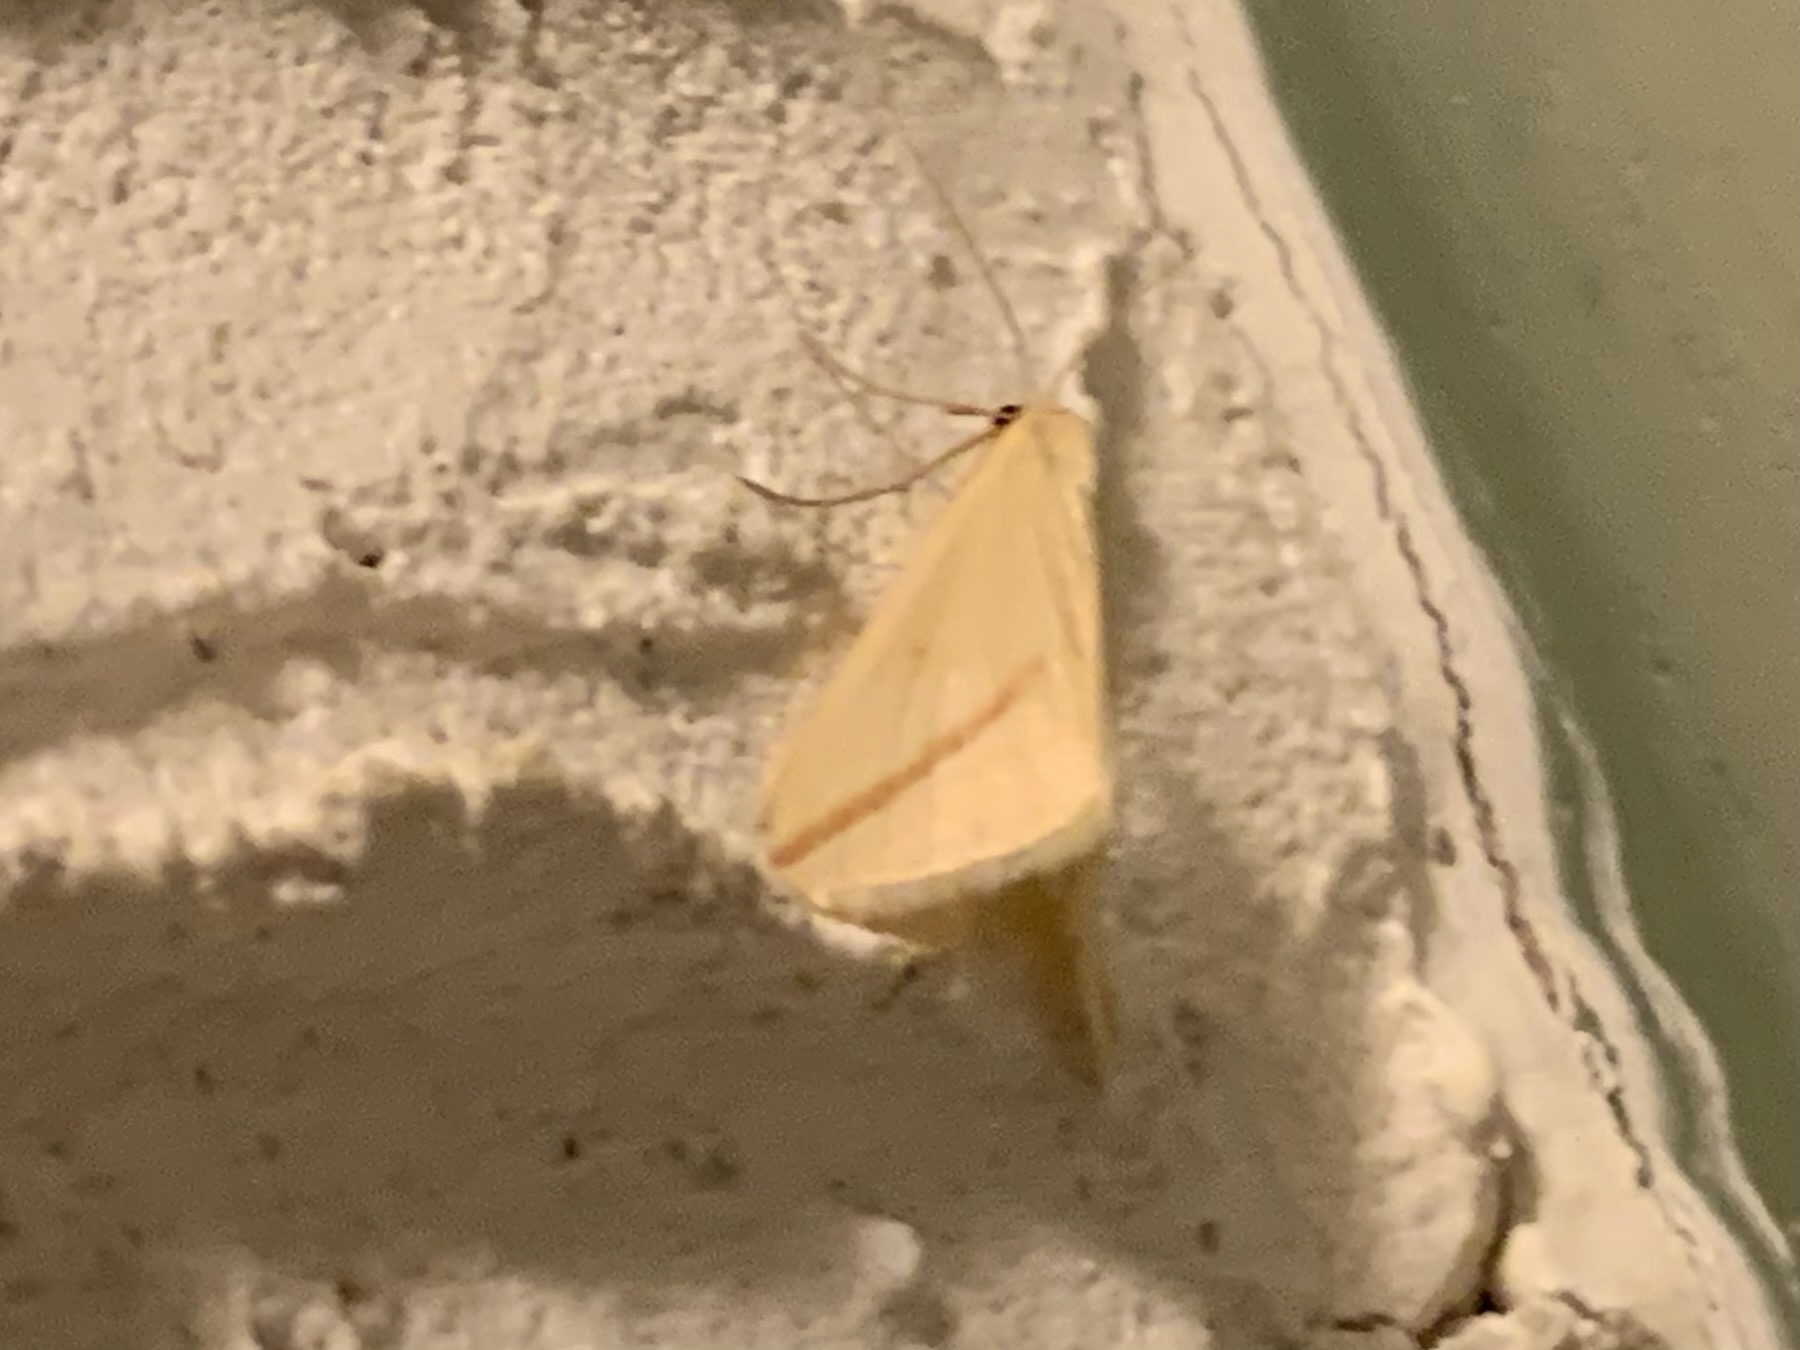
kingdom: Animalia
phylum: Arthropoda
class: Insecta
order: Lepidoptera
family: Geometridae
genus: Rhodometra
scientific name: Rhodometra sacraria
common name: Vestal
